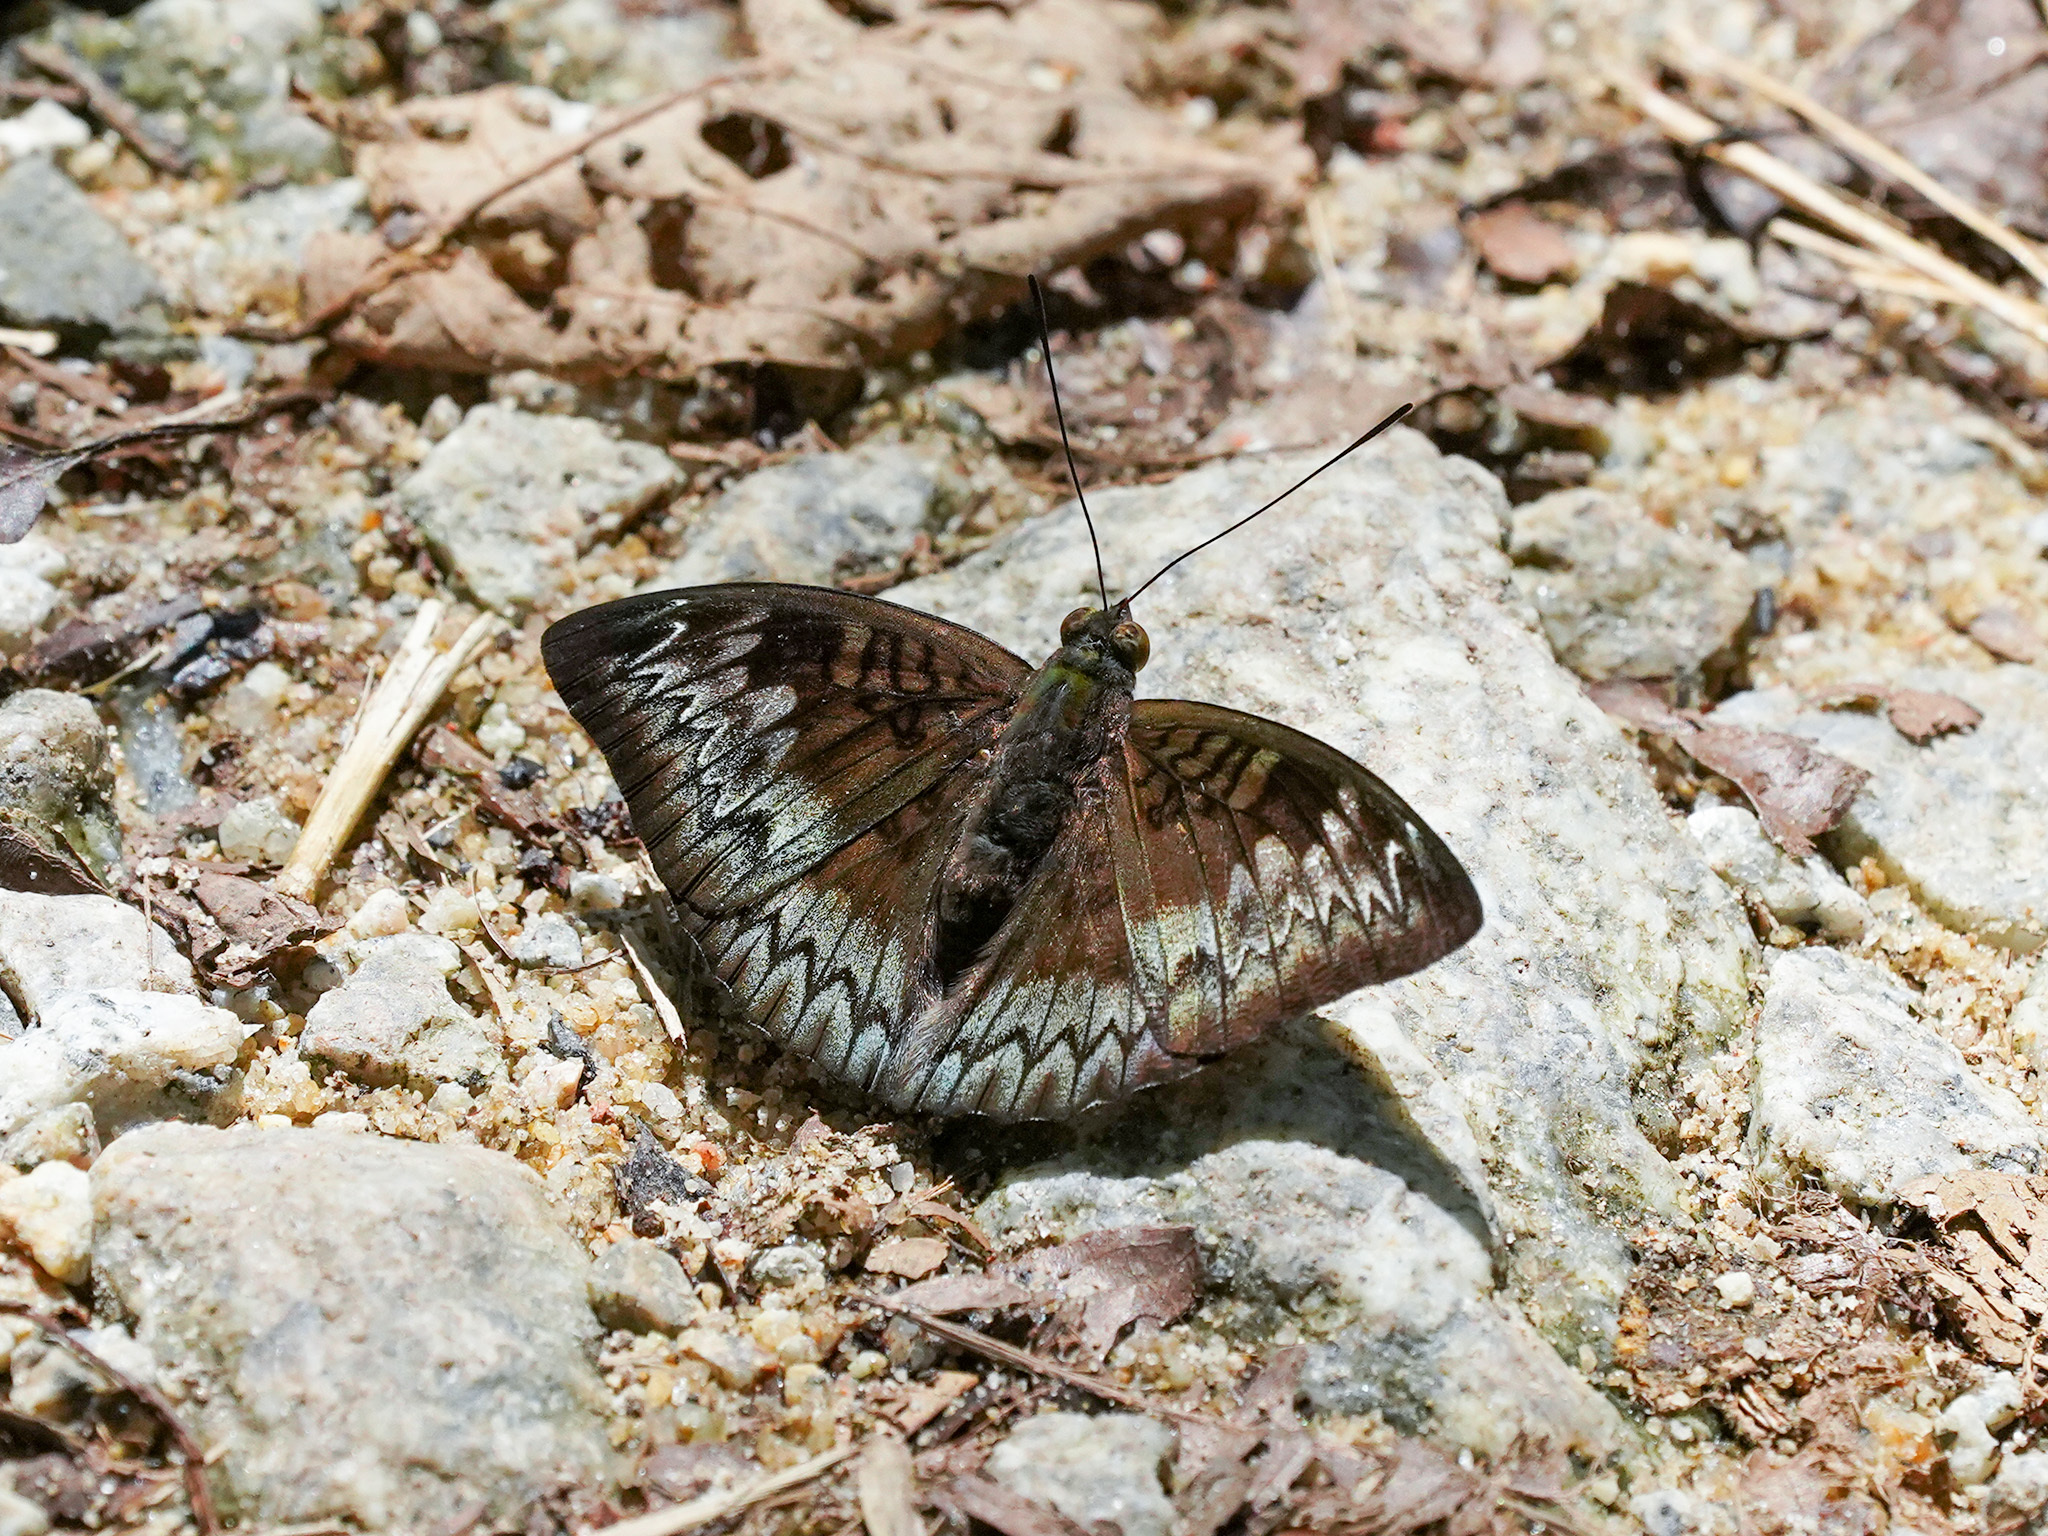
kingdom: Animalia
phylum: Arthropoda
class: Insecta
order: Lepidoptera
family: Nymphalidae
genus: Euthalia
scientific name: Euthalia monina
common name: Powdered baron
